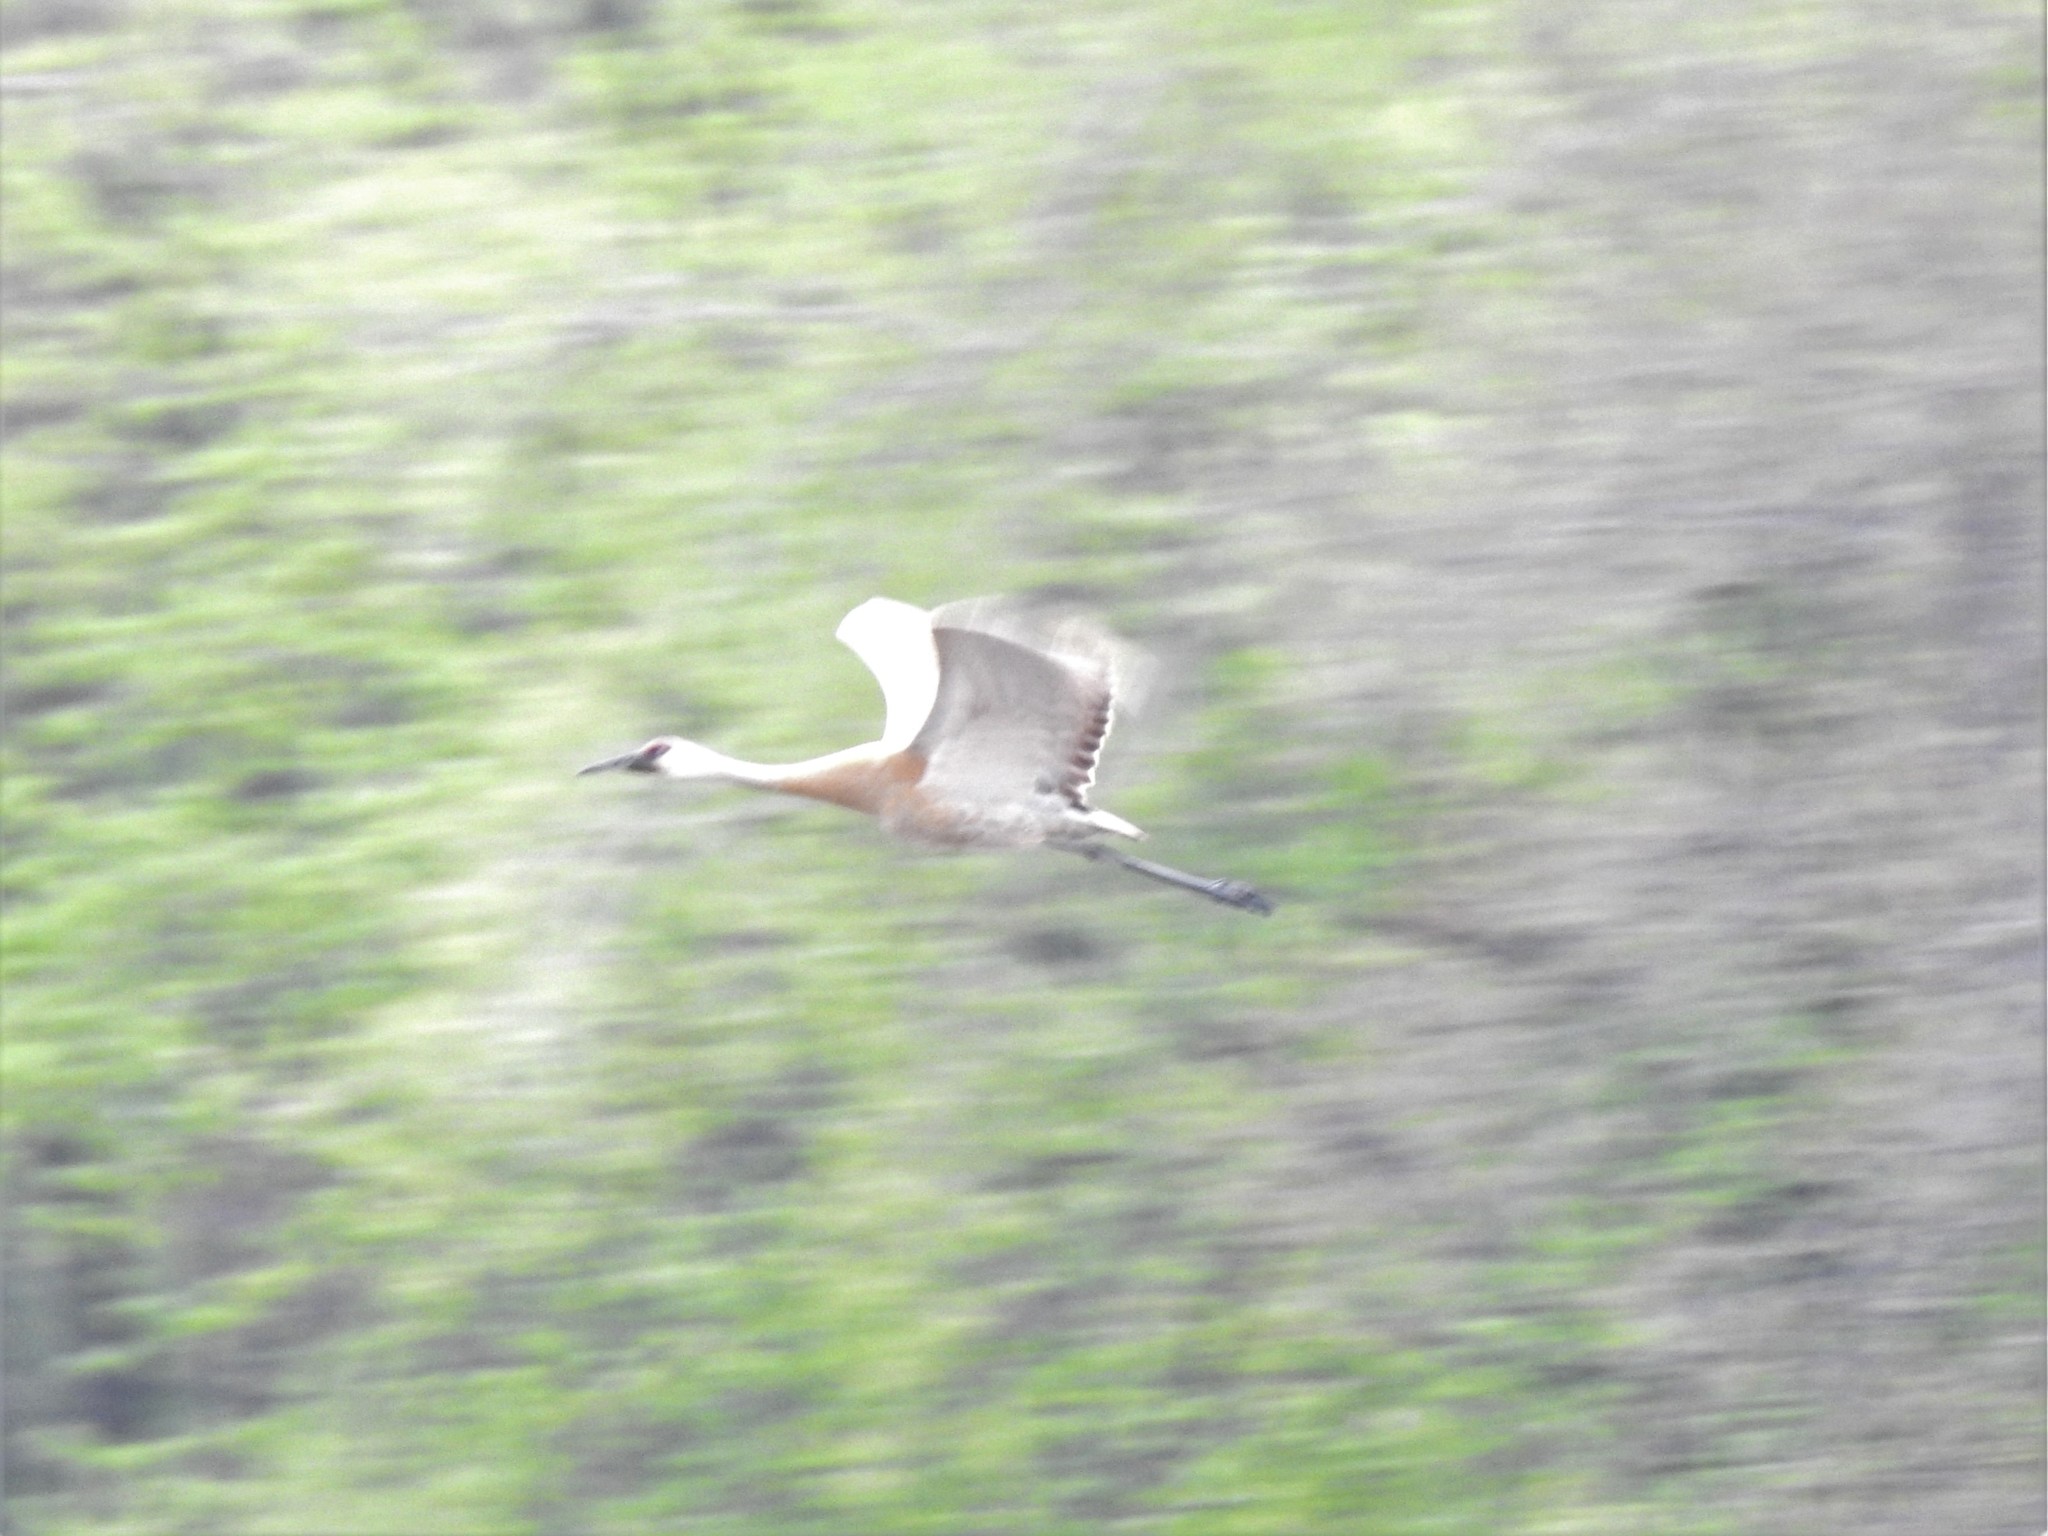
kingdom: Animalia
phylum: Chordata
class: Aves
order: Gruiformes
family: Gruidae
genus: Grus
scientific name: Grus canadensis
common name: Sandhill crane
